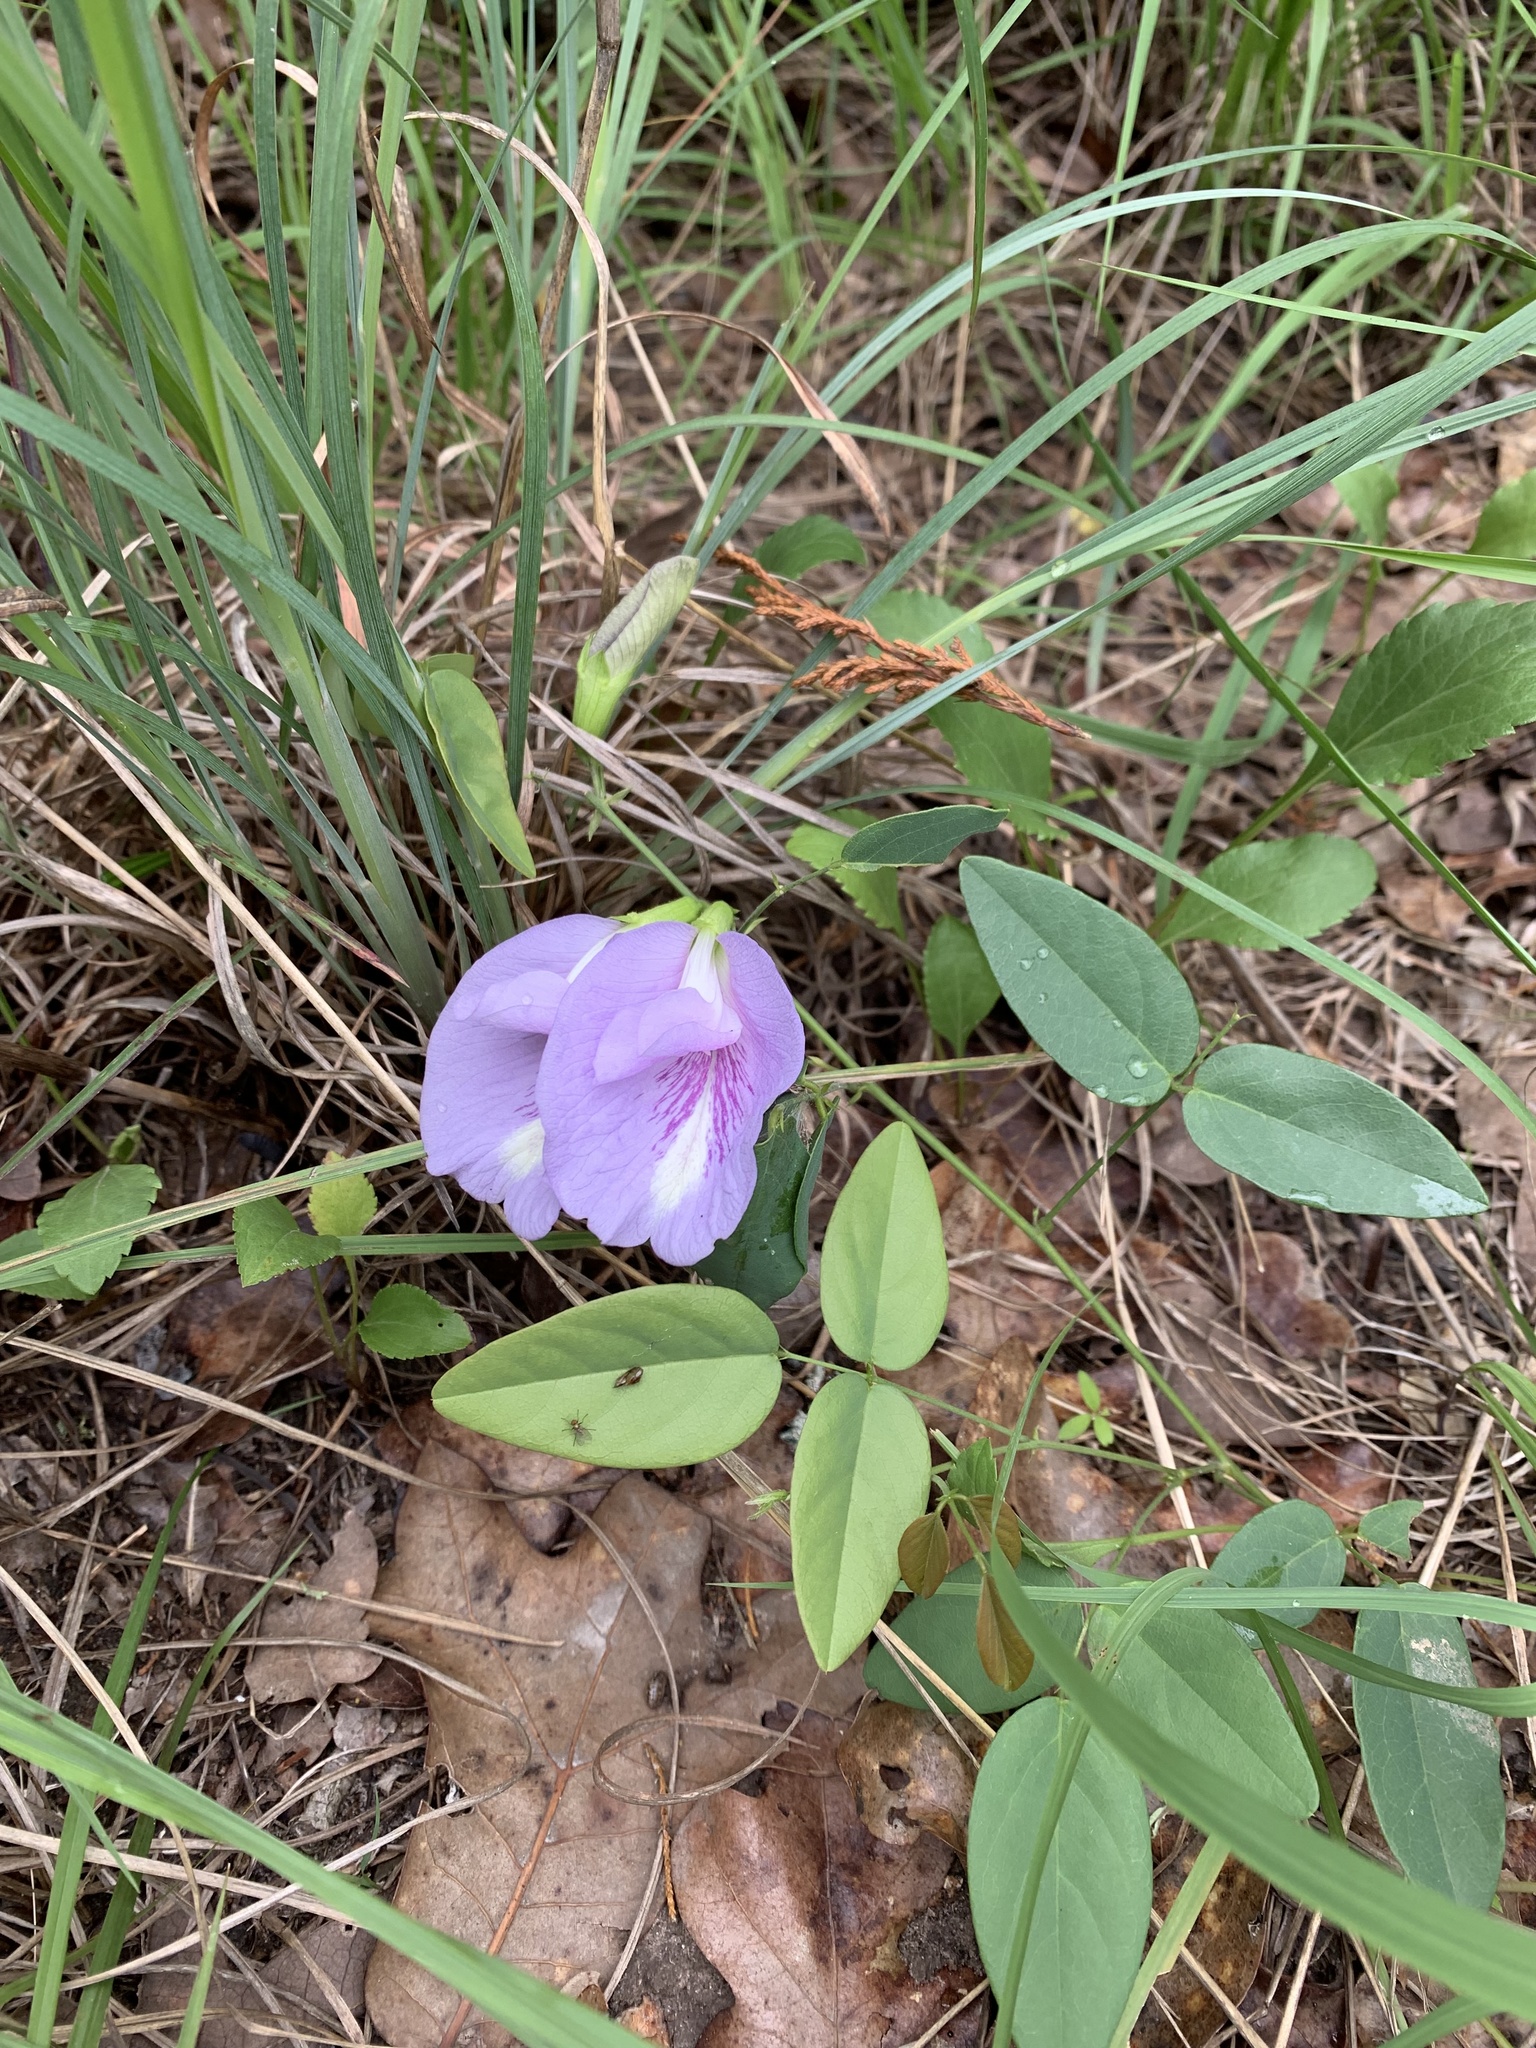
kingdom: Plantae
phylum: Tracheophyta
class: Magnoliopsida
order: Fabales
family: Fabaceae
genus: Clitoria
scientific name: Clitoria mariana
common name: Butterfly-pea
